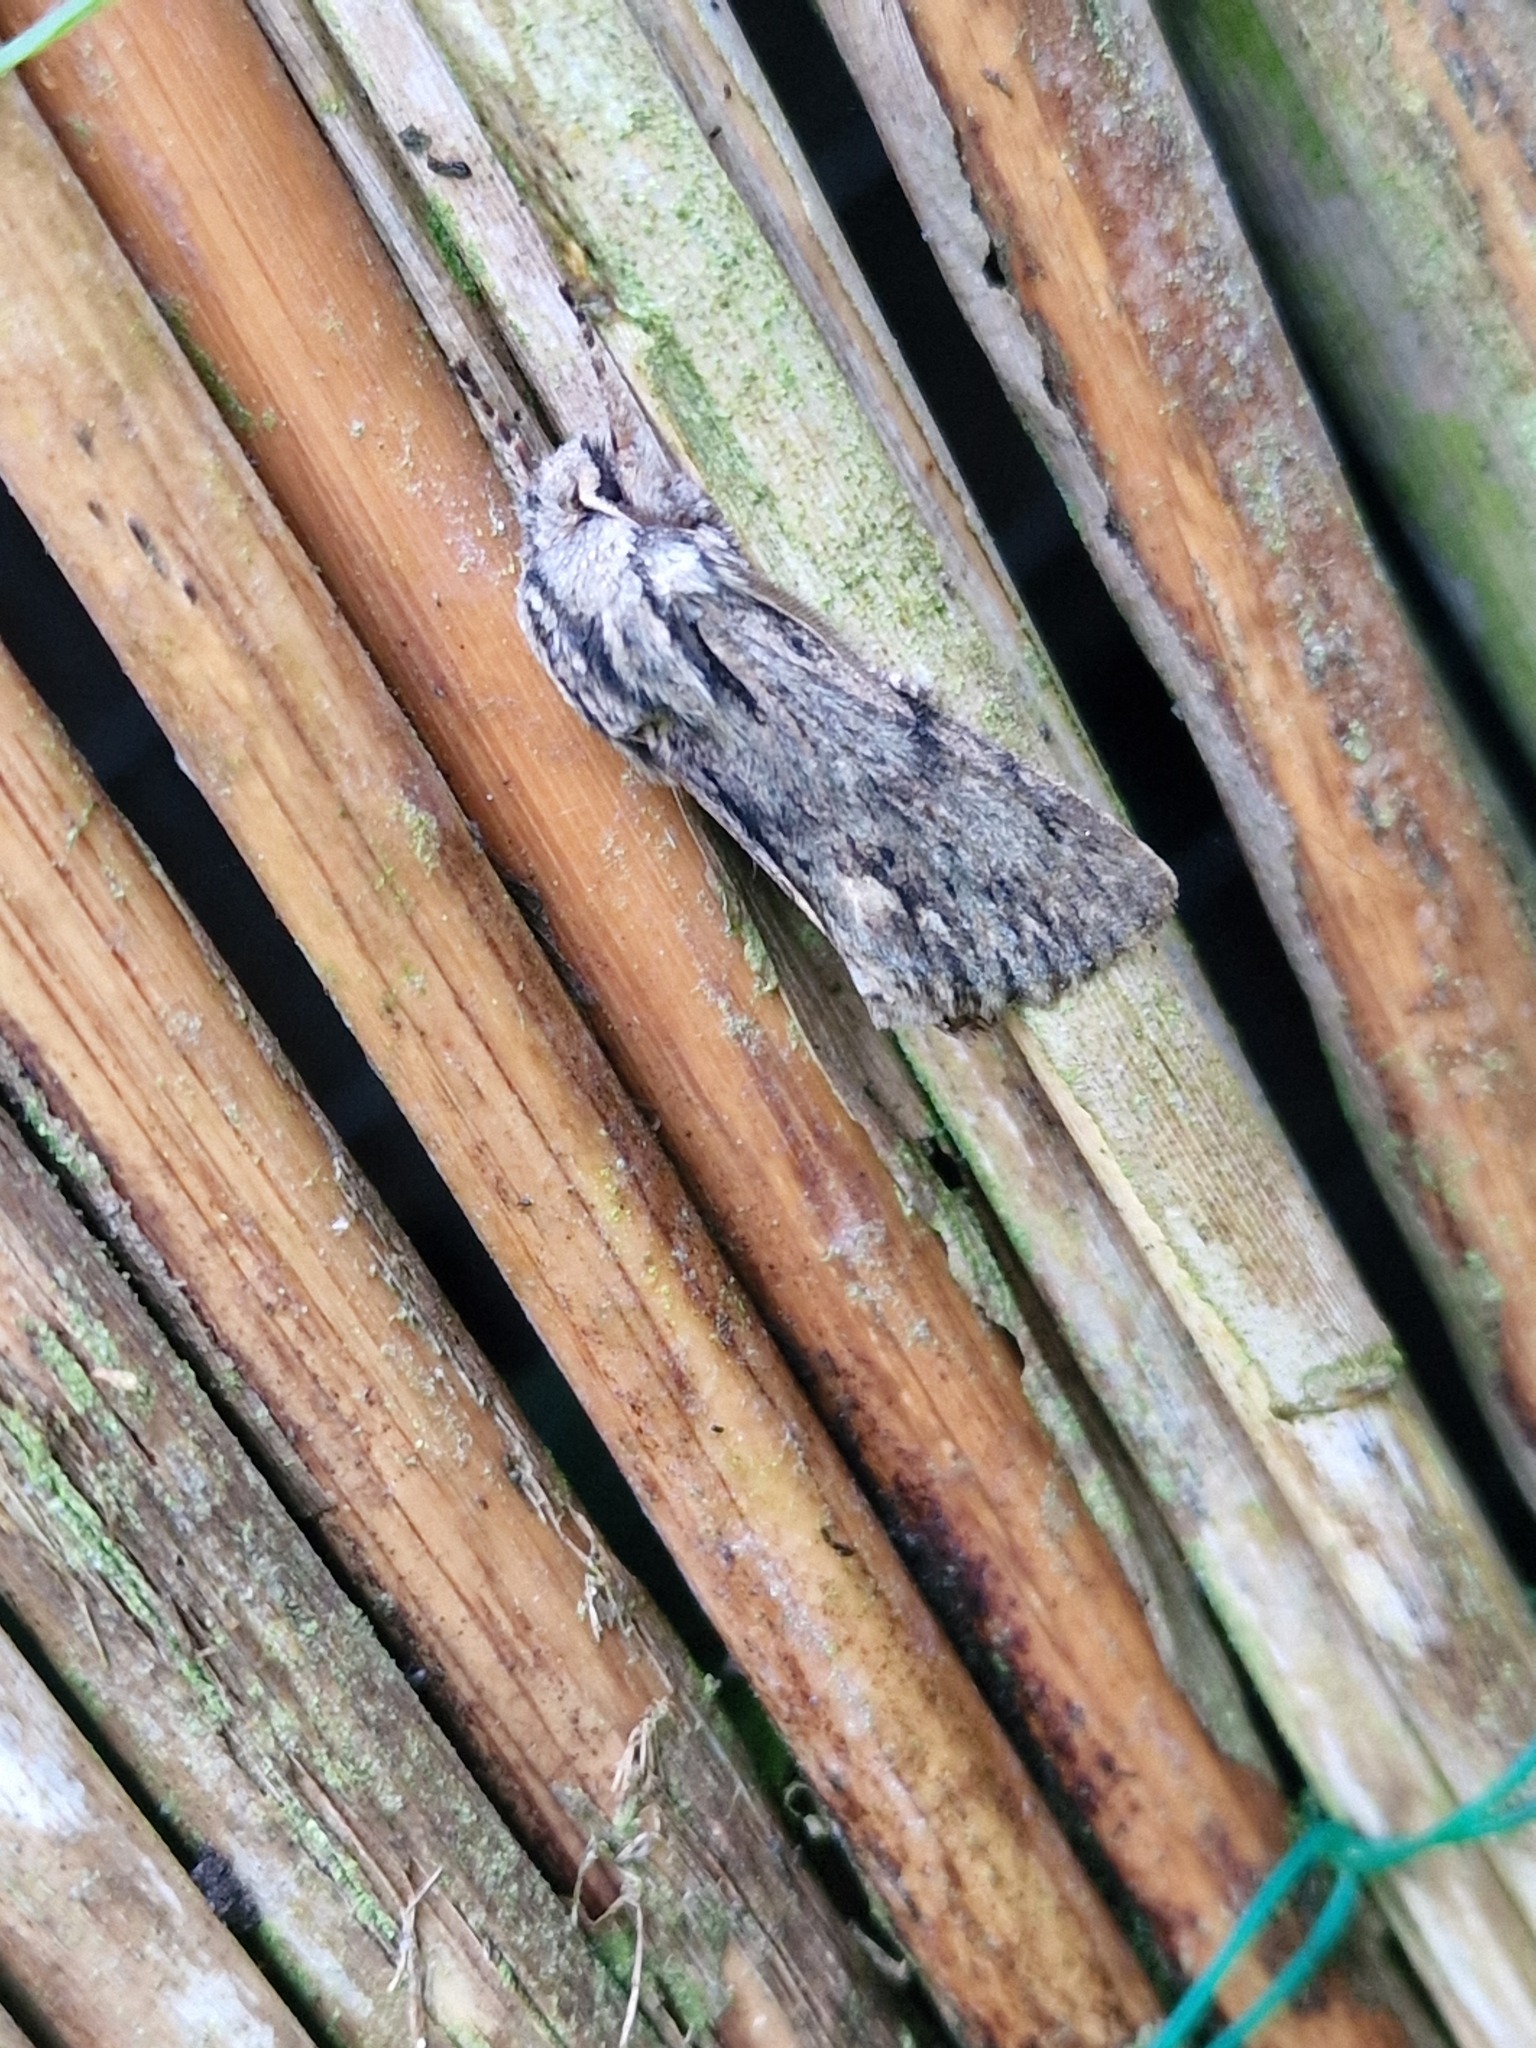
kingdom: Animalia
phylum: Arthropoda
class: Insecta
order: Lepidoptera
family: Noctuidae
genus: Asteroscopus
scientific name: Asteroscopus sphinx
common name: The sprawler
